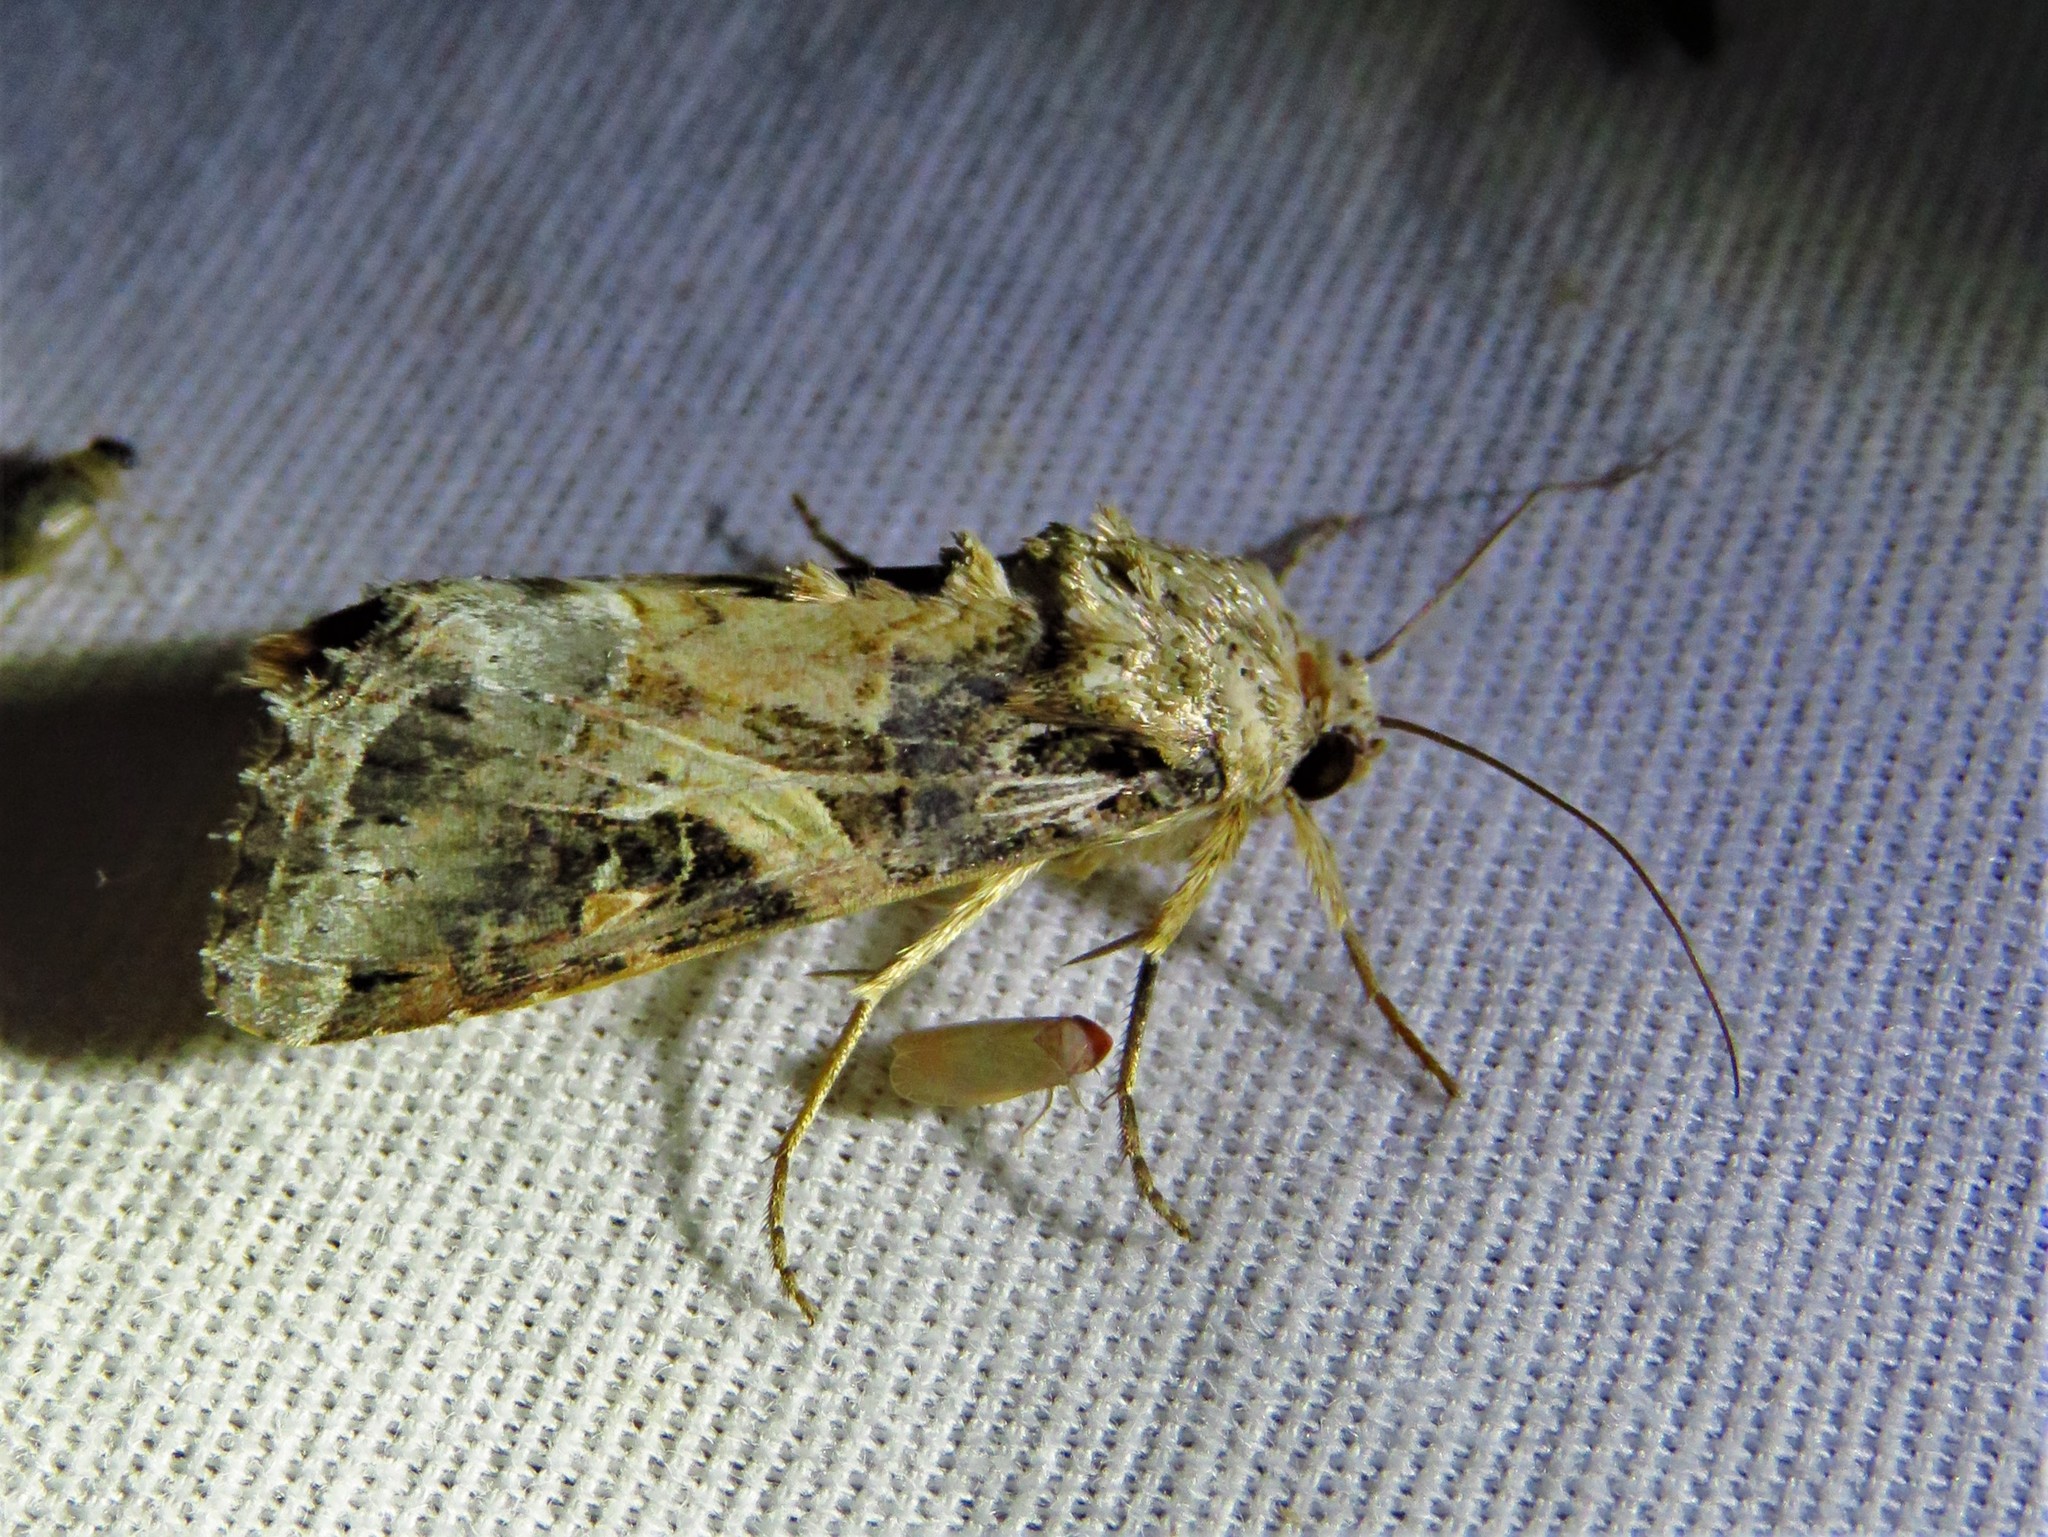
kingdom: Animalia
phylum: Arthropoda
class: Insecta
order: Lepidoptera
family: Noctuidae
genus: Spodoptera
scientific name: Spodoptera ornithogalli
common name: Yellow-striped armyworm
